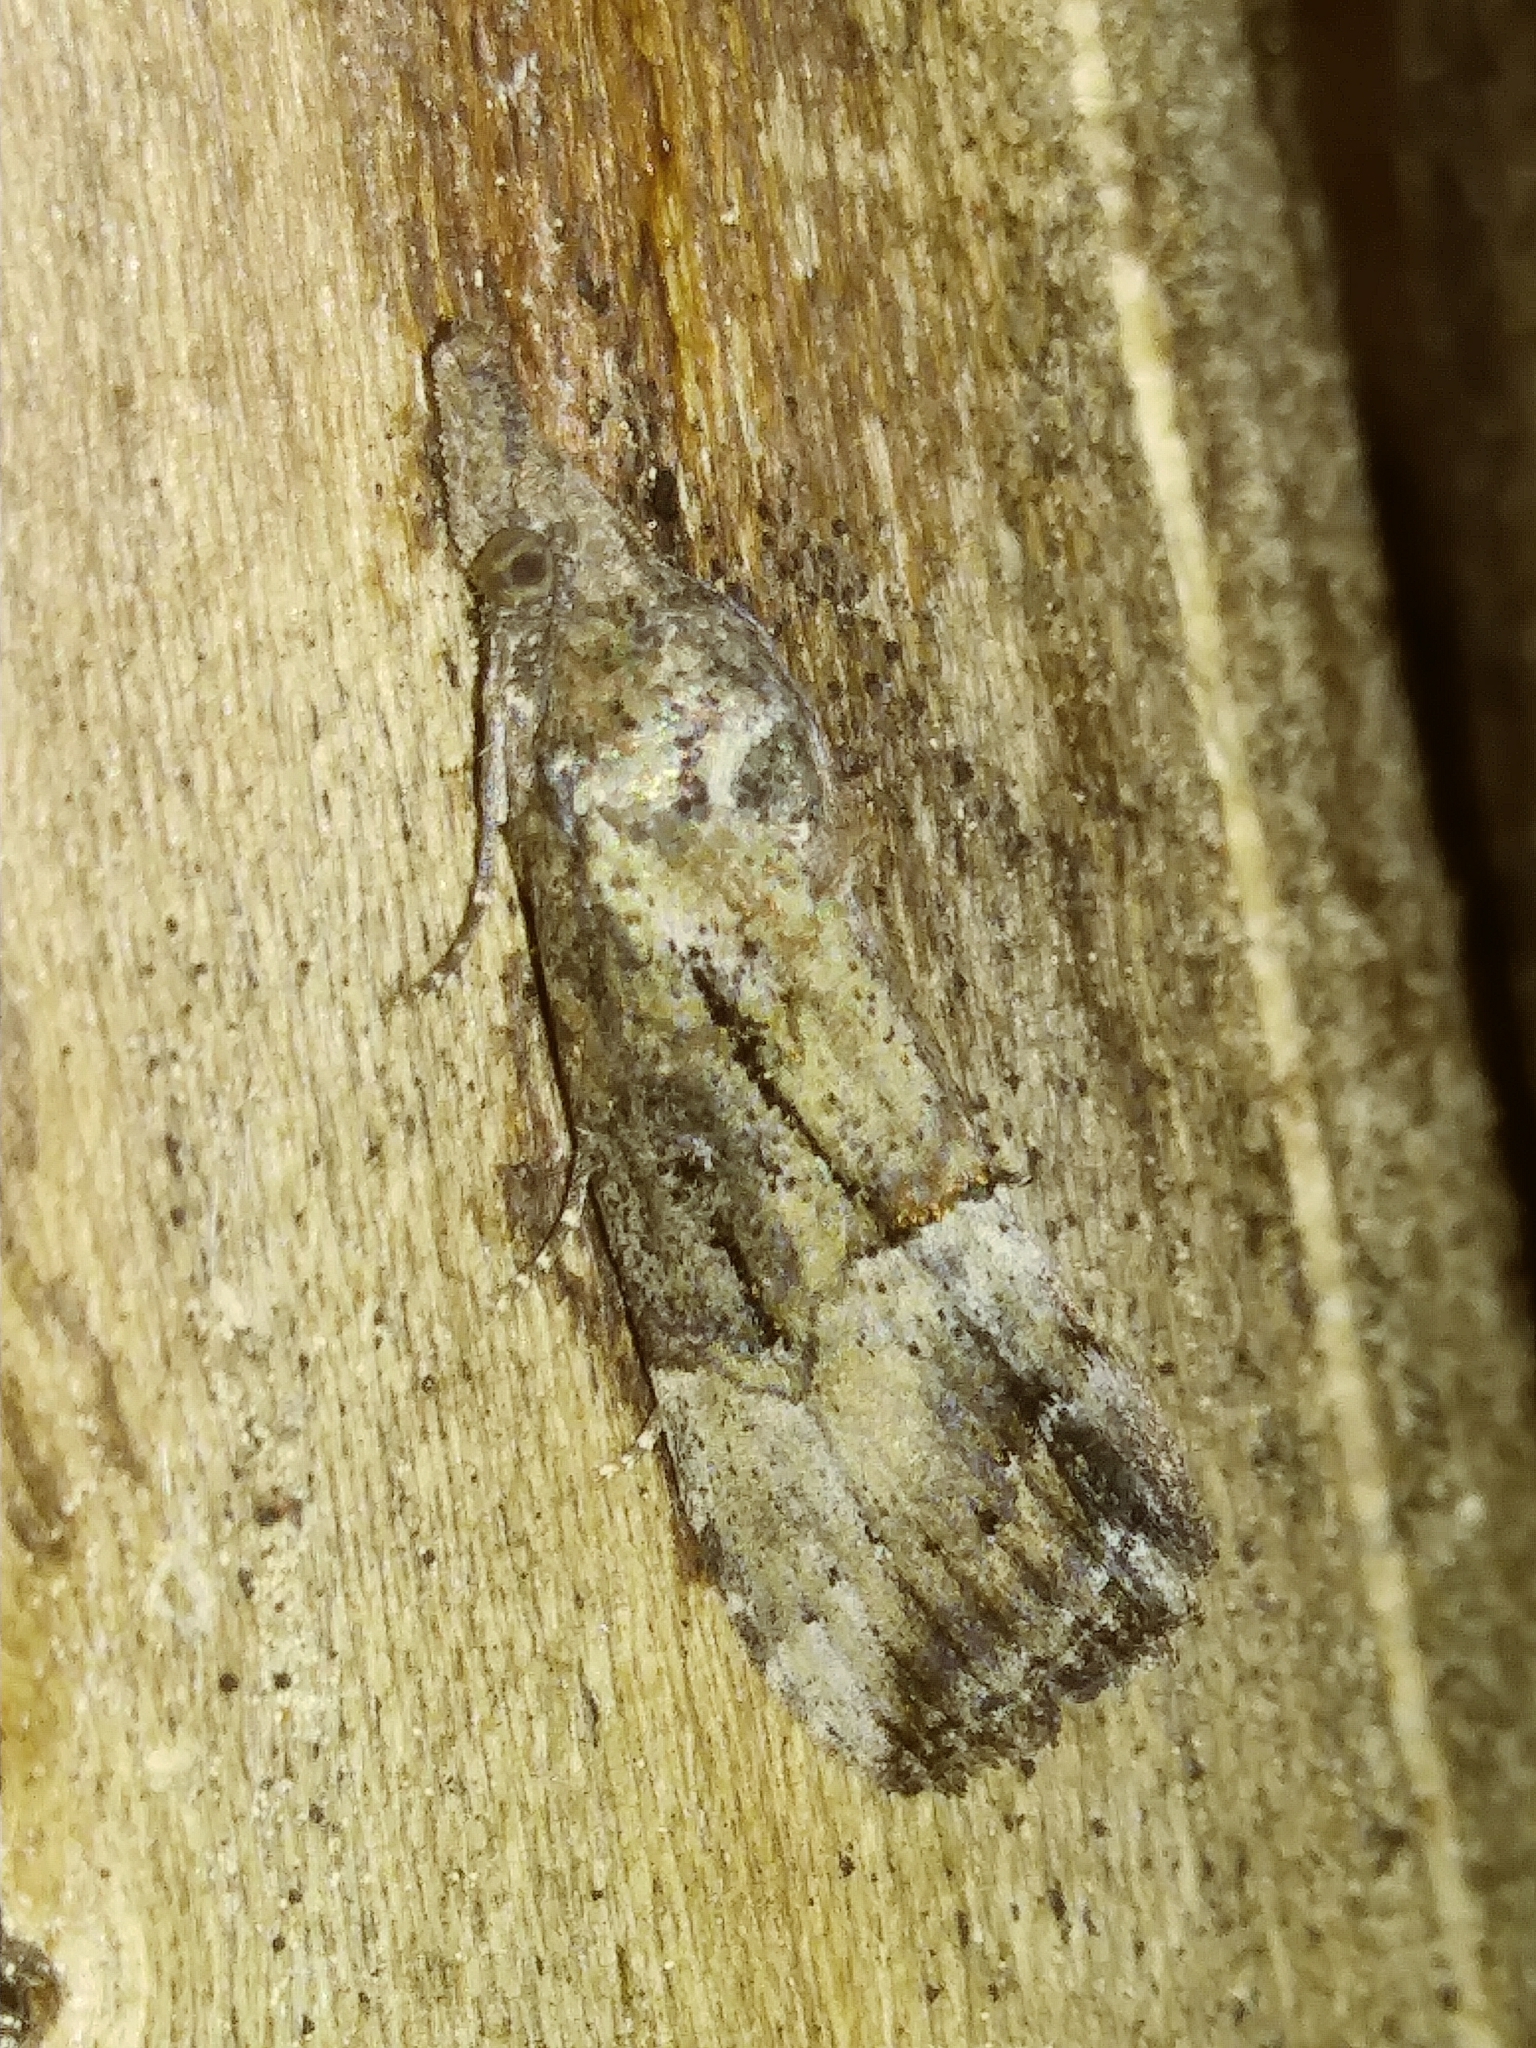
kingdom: Animalia
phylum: Arthropoda
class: Insecta
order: Lepidoptera
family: Erebidae
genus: Hypena
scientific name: Hypena scabra
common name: Green cloverworm
